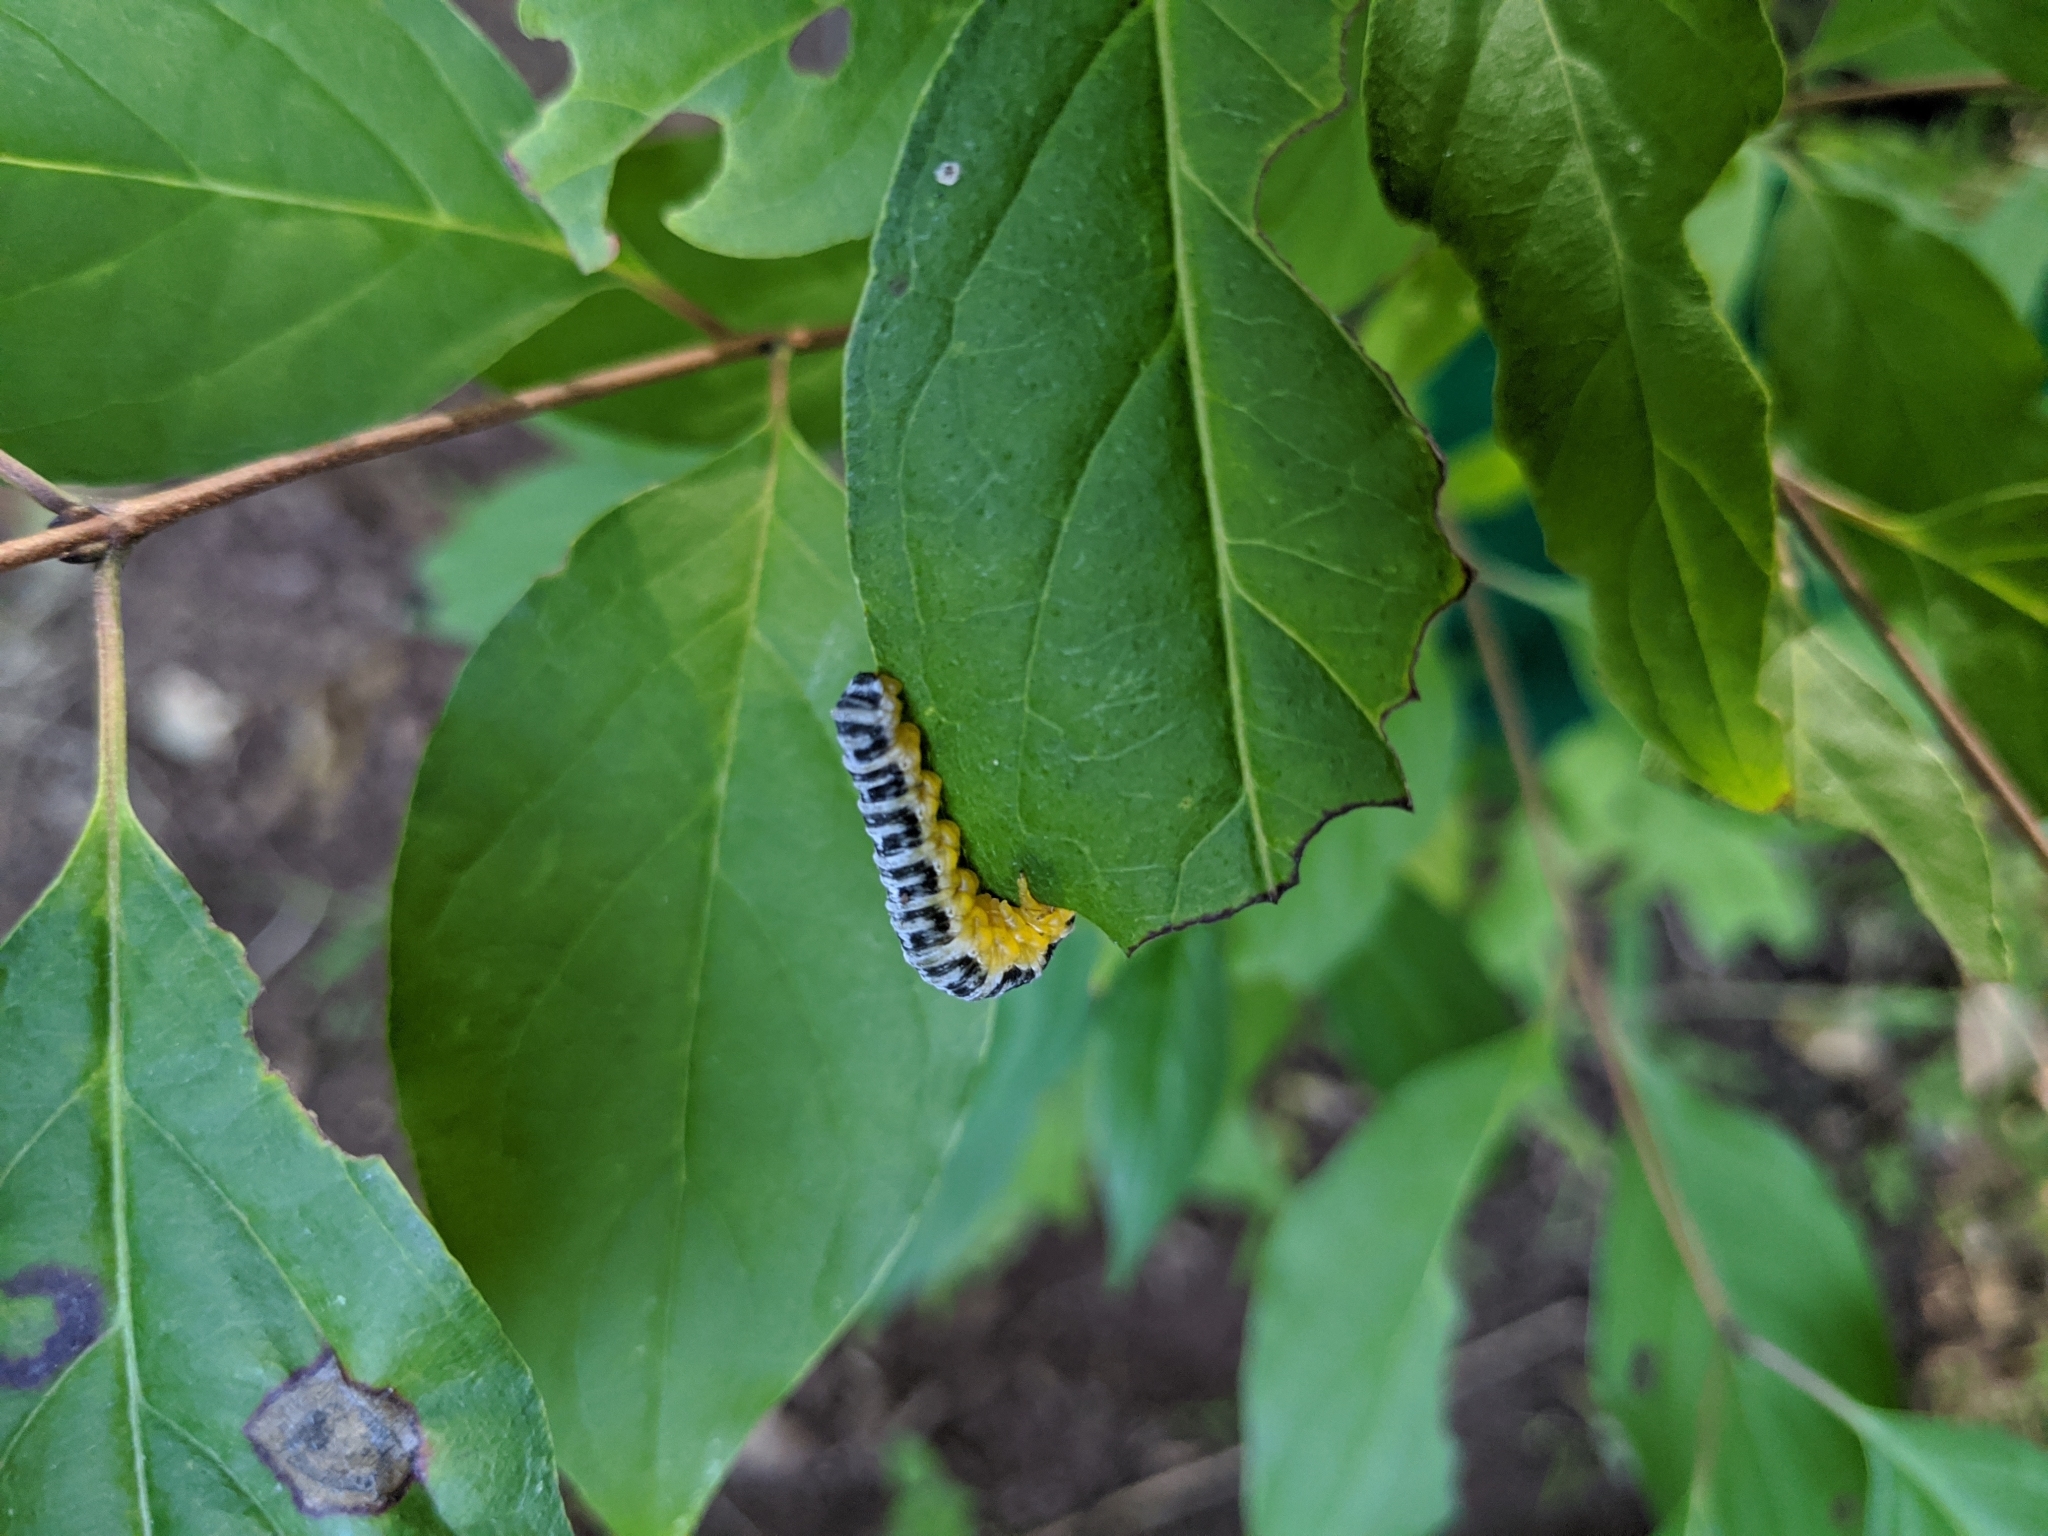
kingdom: Animalia
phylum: Arthropoda
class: Insecta
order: Hymenoptera
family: Tenthredinidae
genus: Macremphytus
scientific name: Macremphytus
